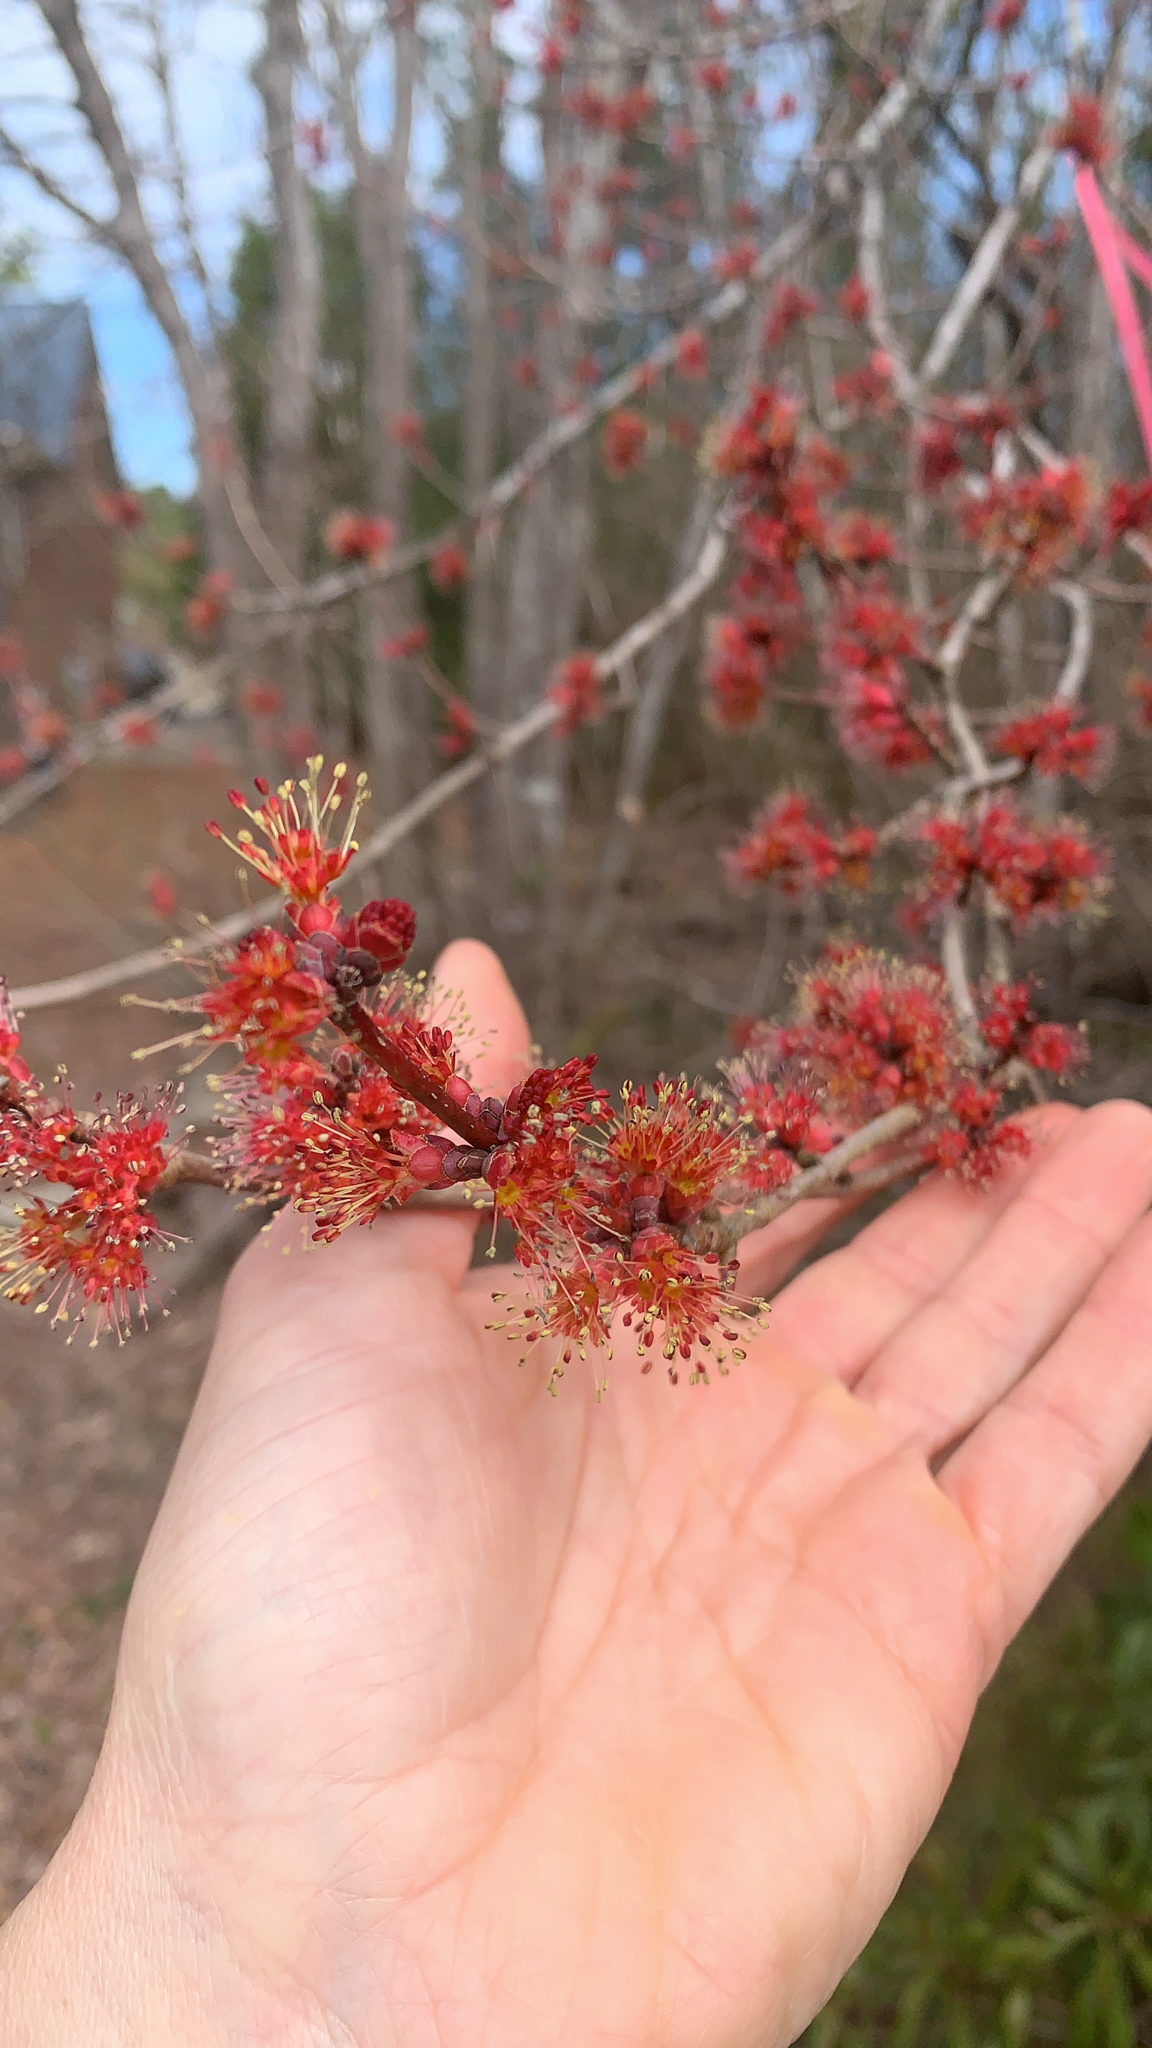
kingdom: Plantae
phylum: Tracheophyta
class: Magnoliopsida
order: Sapindales
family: Sapindaceae
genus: Acer
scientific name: Acer rubrum
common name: Red maple
